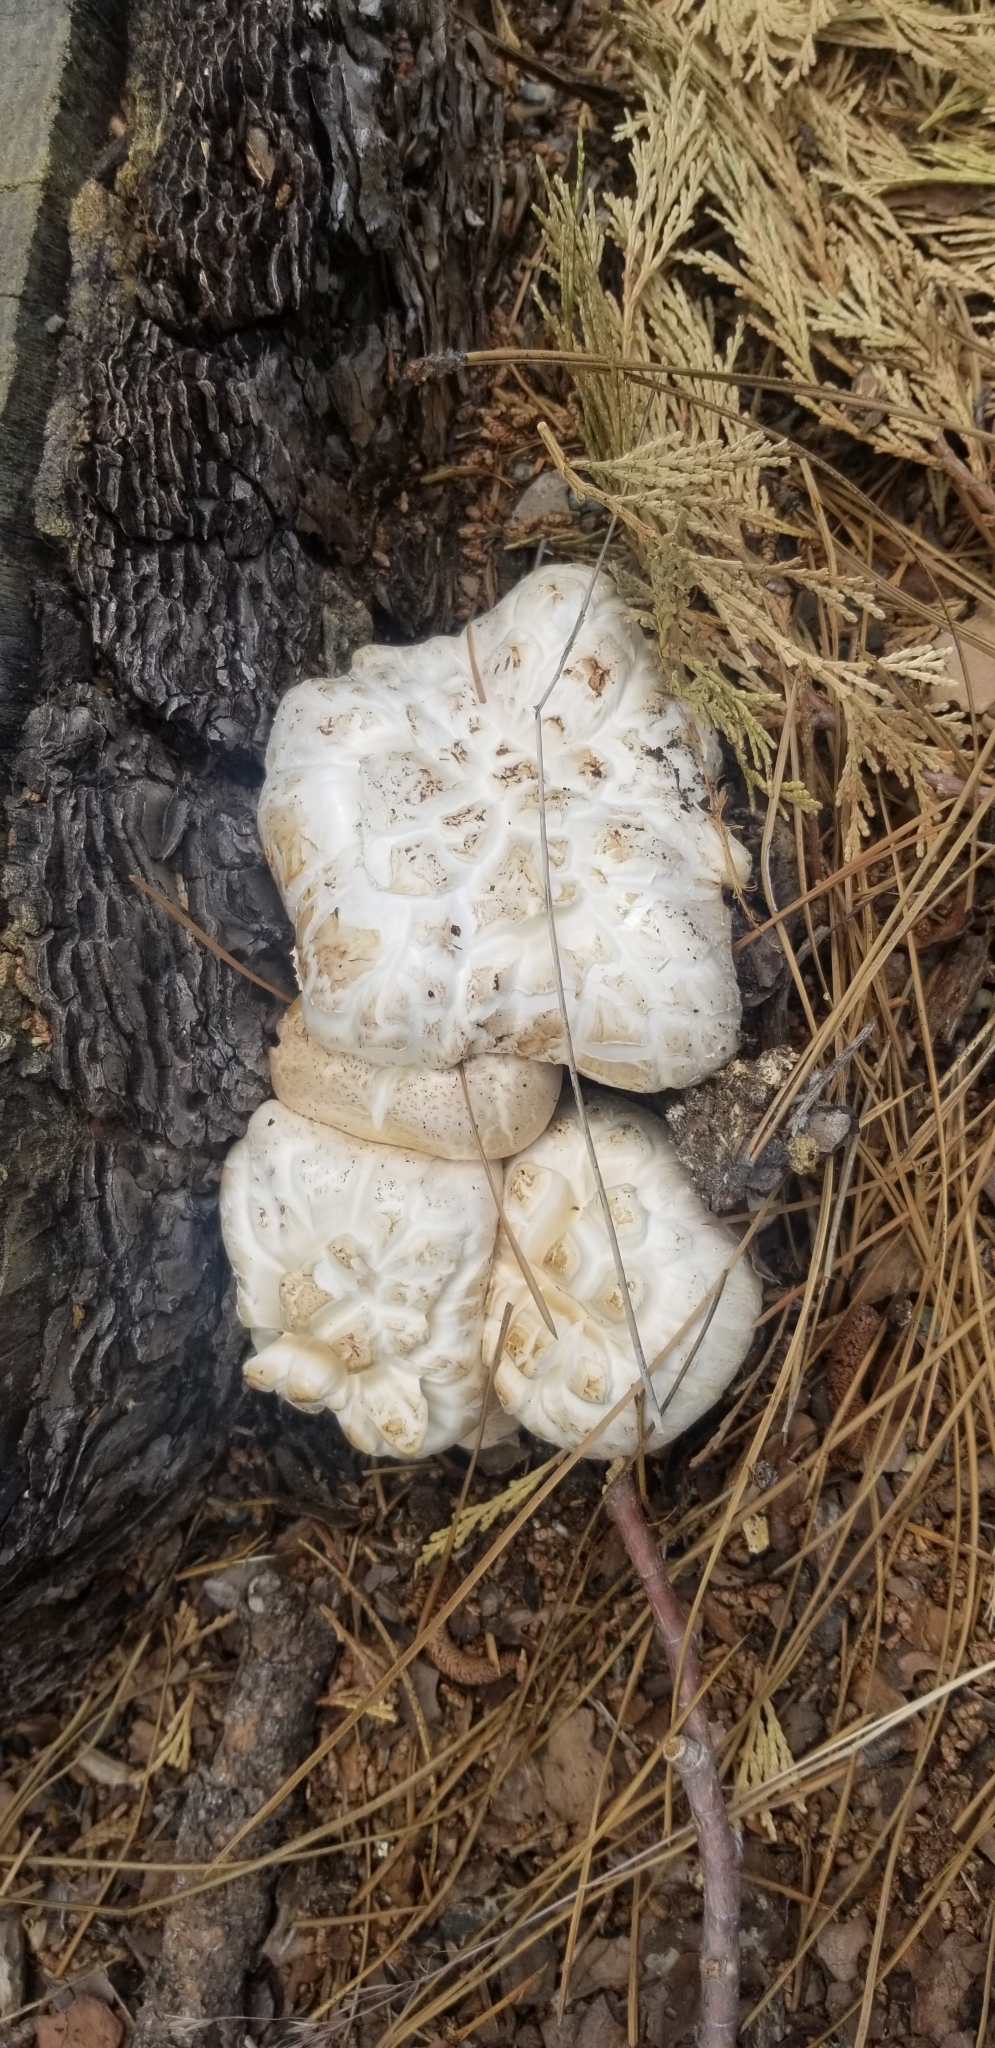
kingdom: Fungi
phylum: Basidiomycota
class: Agaricomycetes
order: Gloeophyllales
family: Gloeophyllaceae
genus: Neolentinus
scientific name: Neolentinus ponderosus
